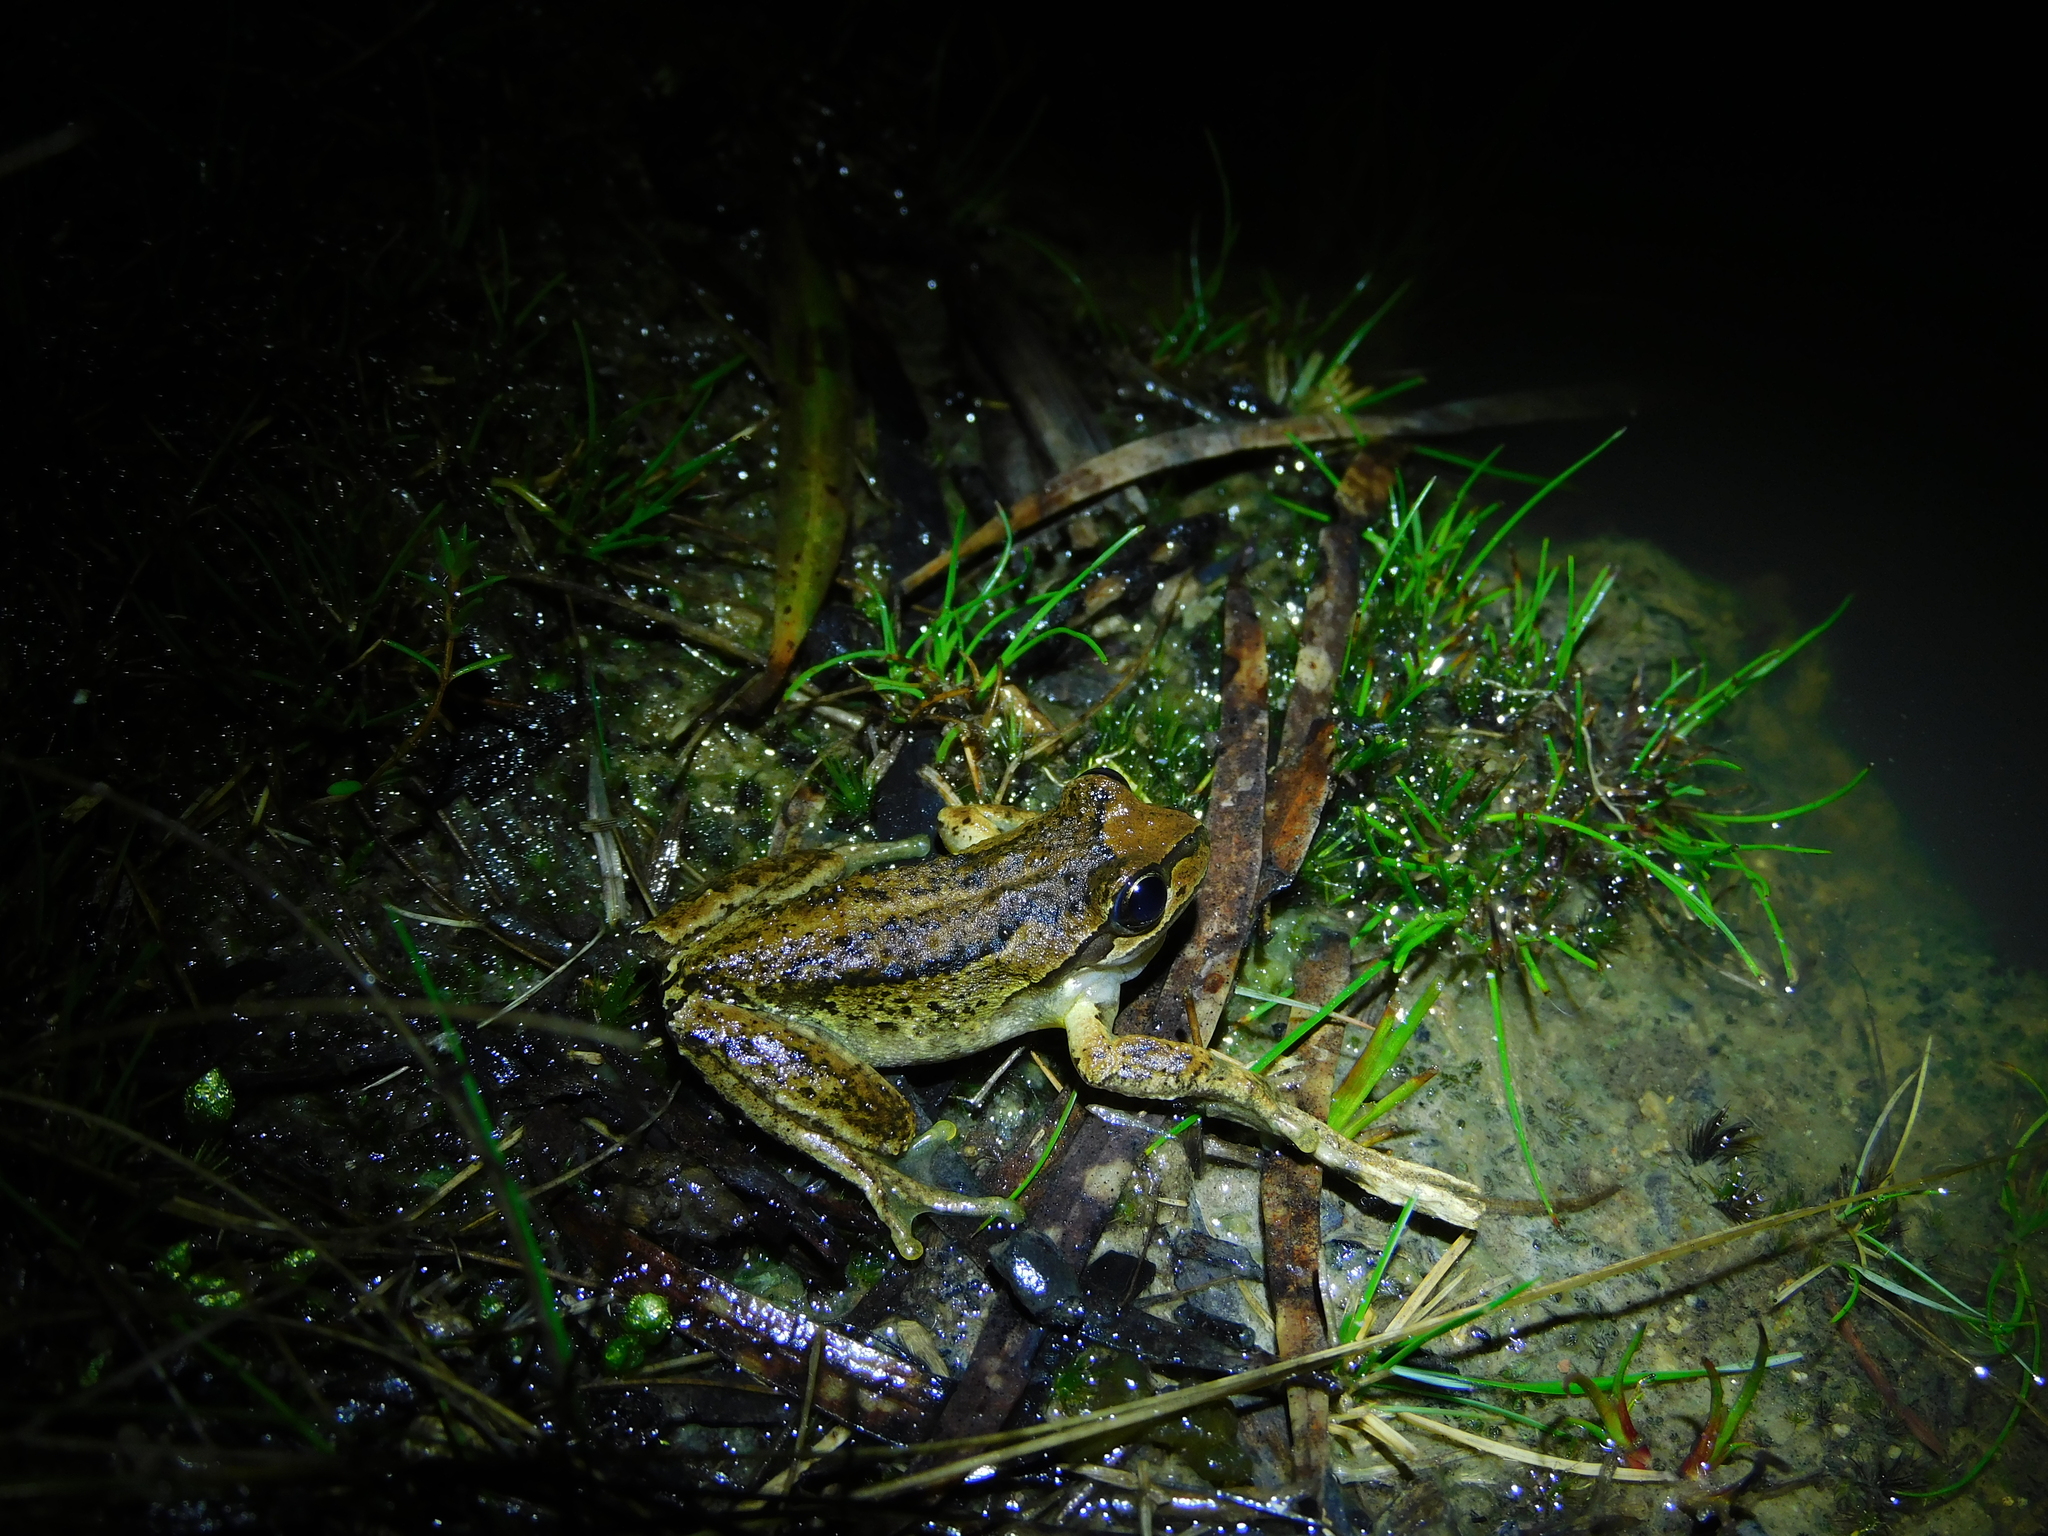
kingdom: Animalia
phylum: Chordata
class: Amphibia
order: Anura
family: Pelodryadidae
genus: Litoria
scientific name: Litoria ewingii
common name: Southern brown tree frog
